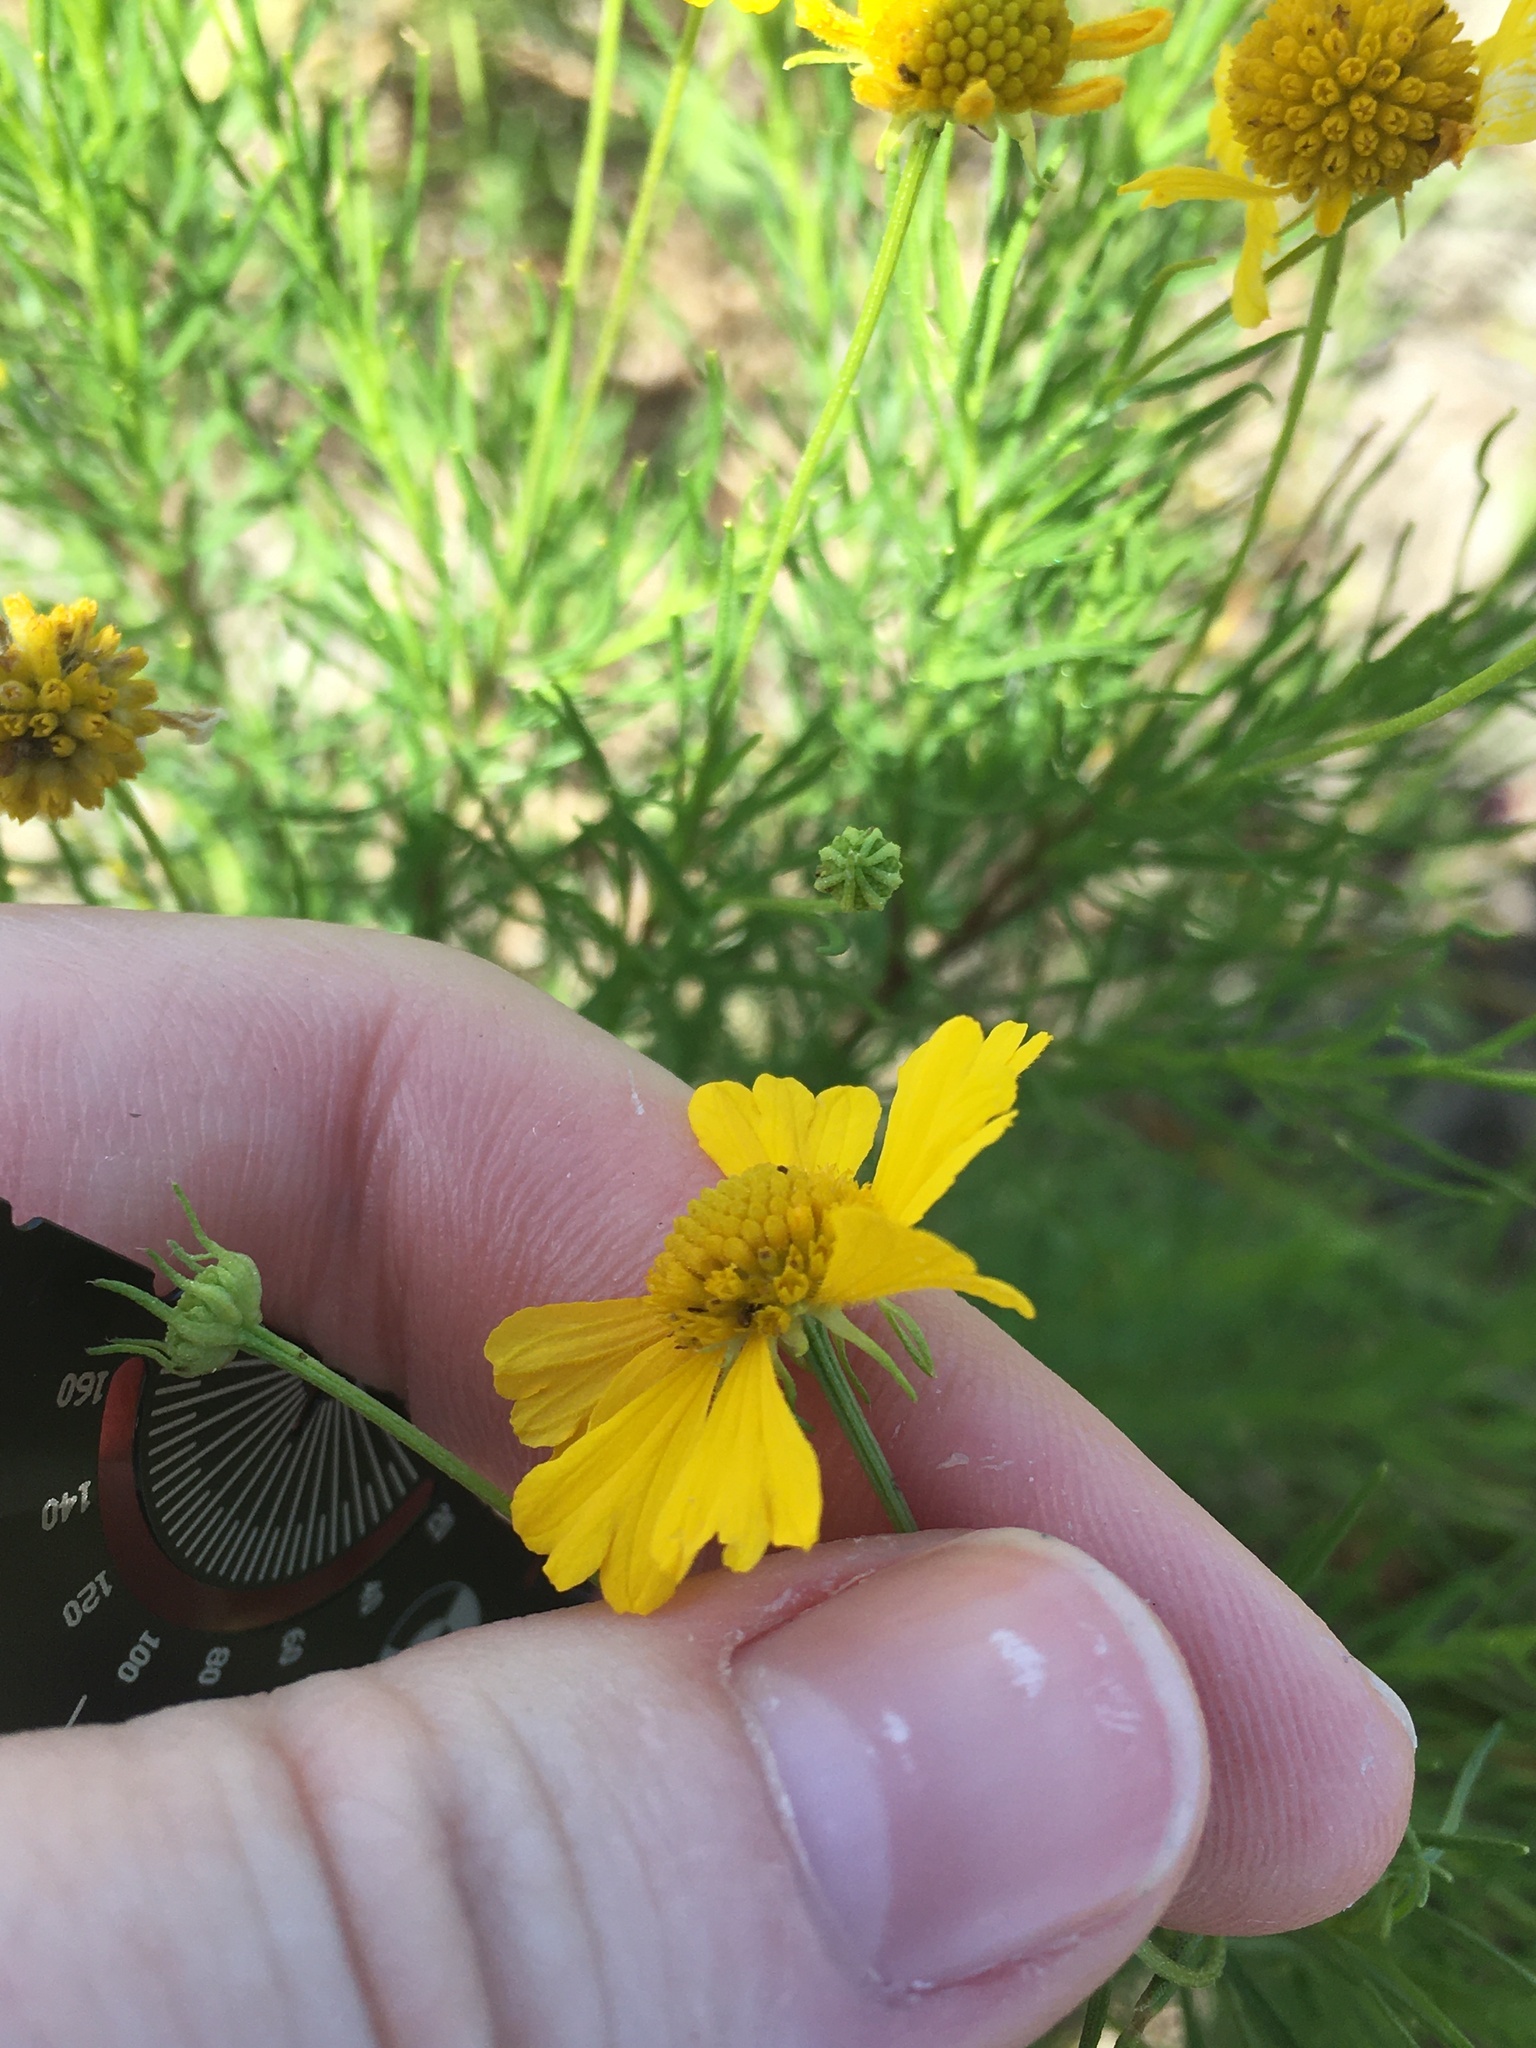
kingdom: Plantae
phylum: Tracheophyta
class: Magnoliopsida
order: Asterales
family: Asteraceae
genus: Helenium
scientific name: Helenium amarum
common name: Bitter sneezeweed
